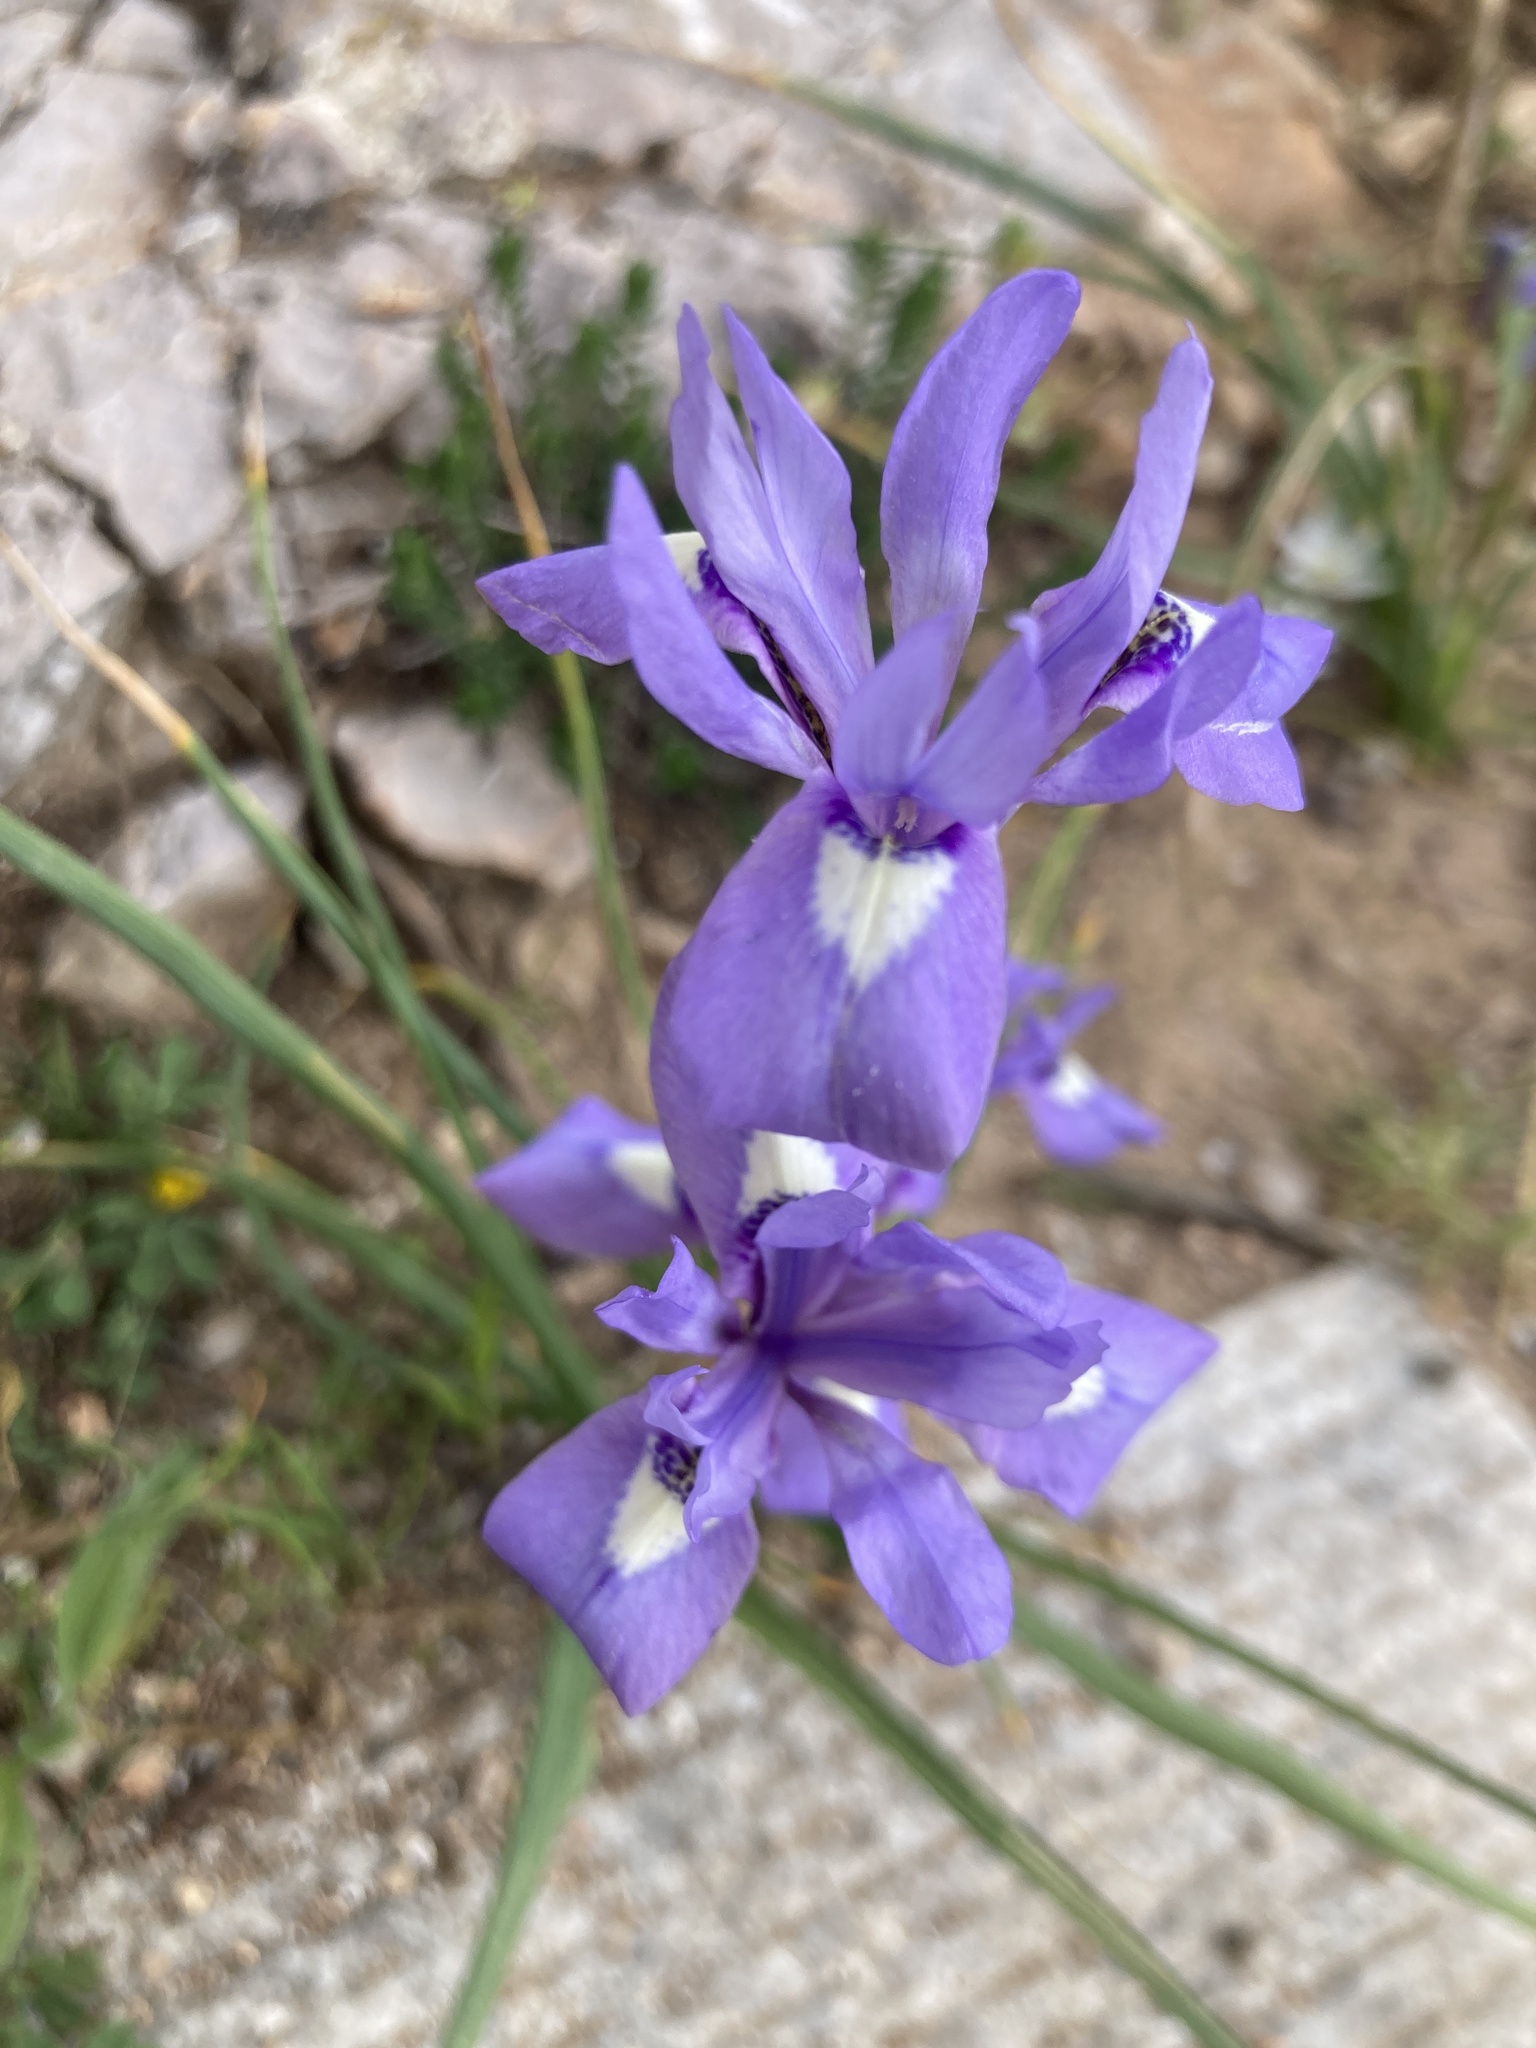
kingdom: Plantae
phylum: Tracheophyta
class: Liliopsida
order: Asparagales
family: Iridaceae
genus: Moraea
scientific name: Moraea sisyrinchium
